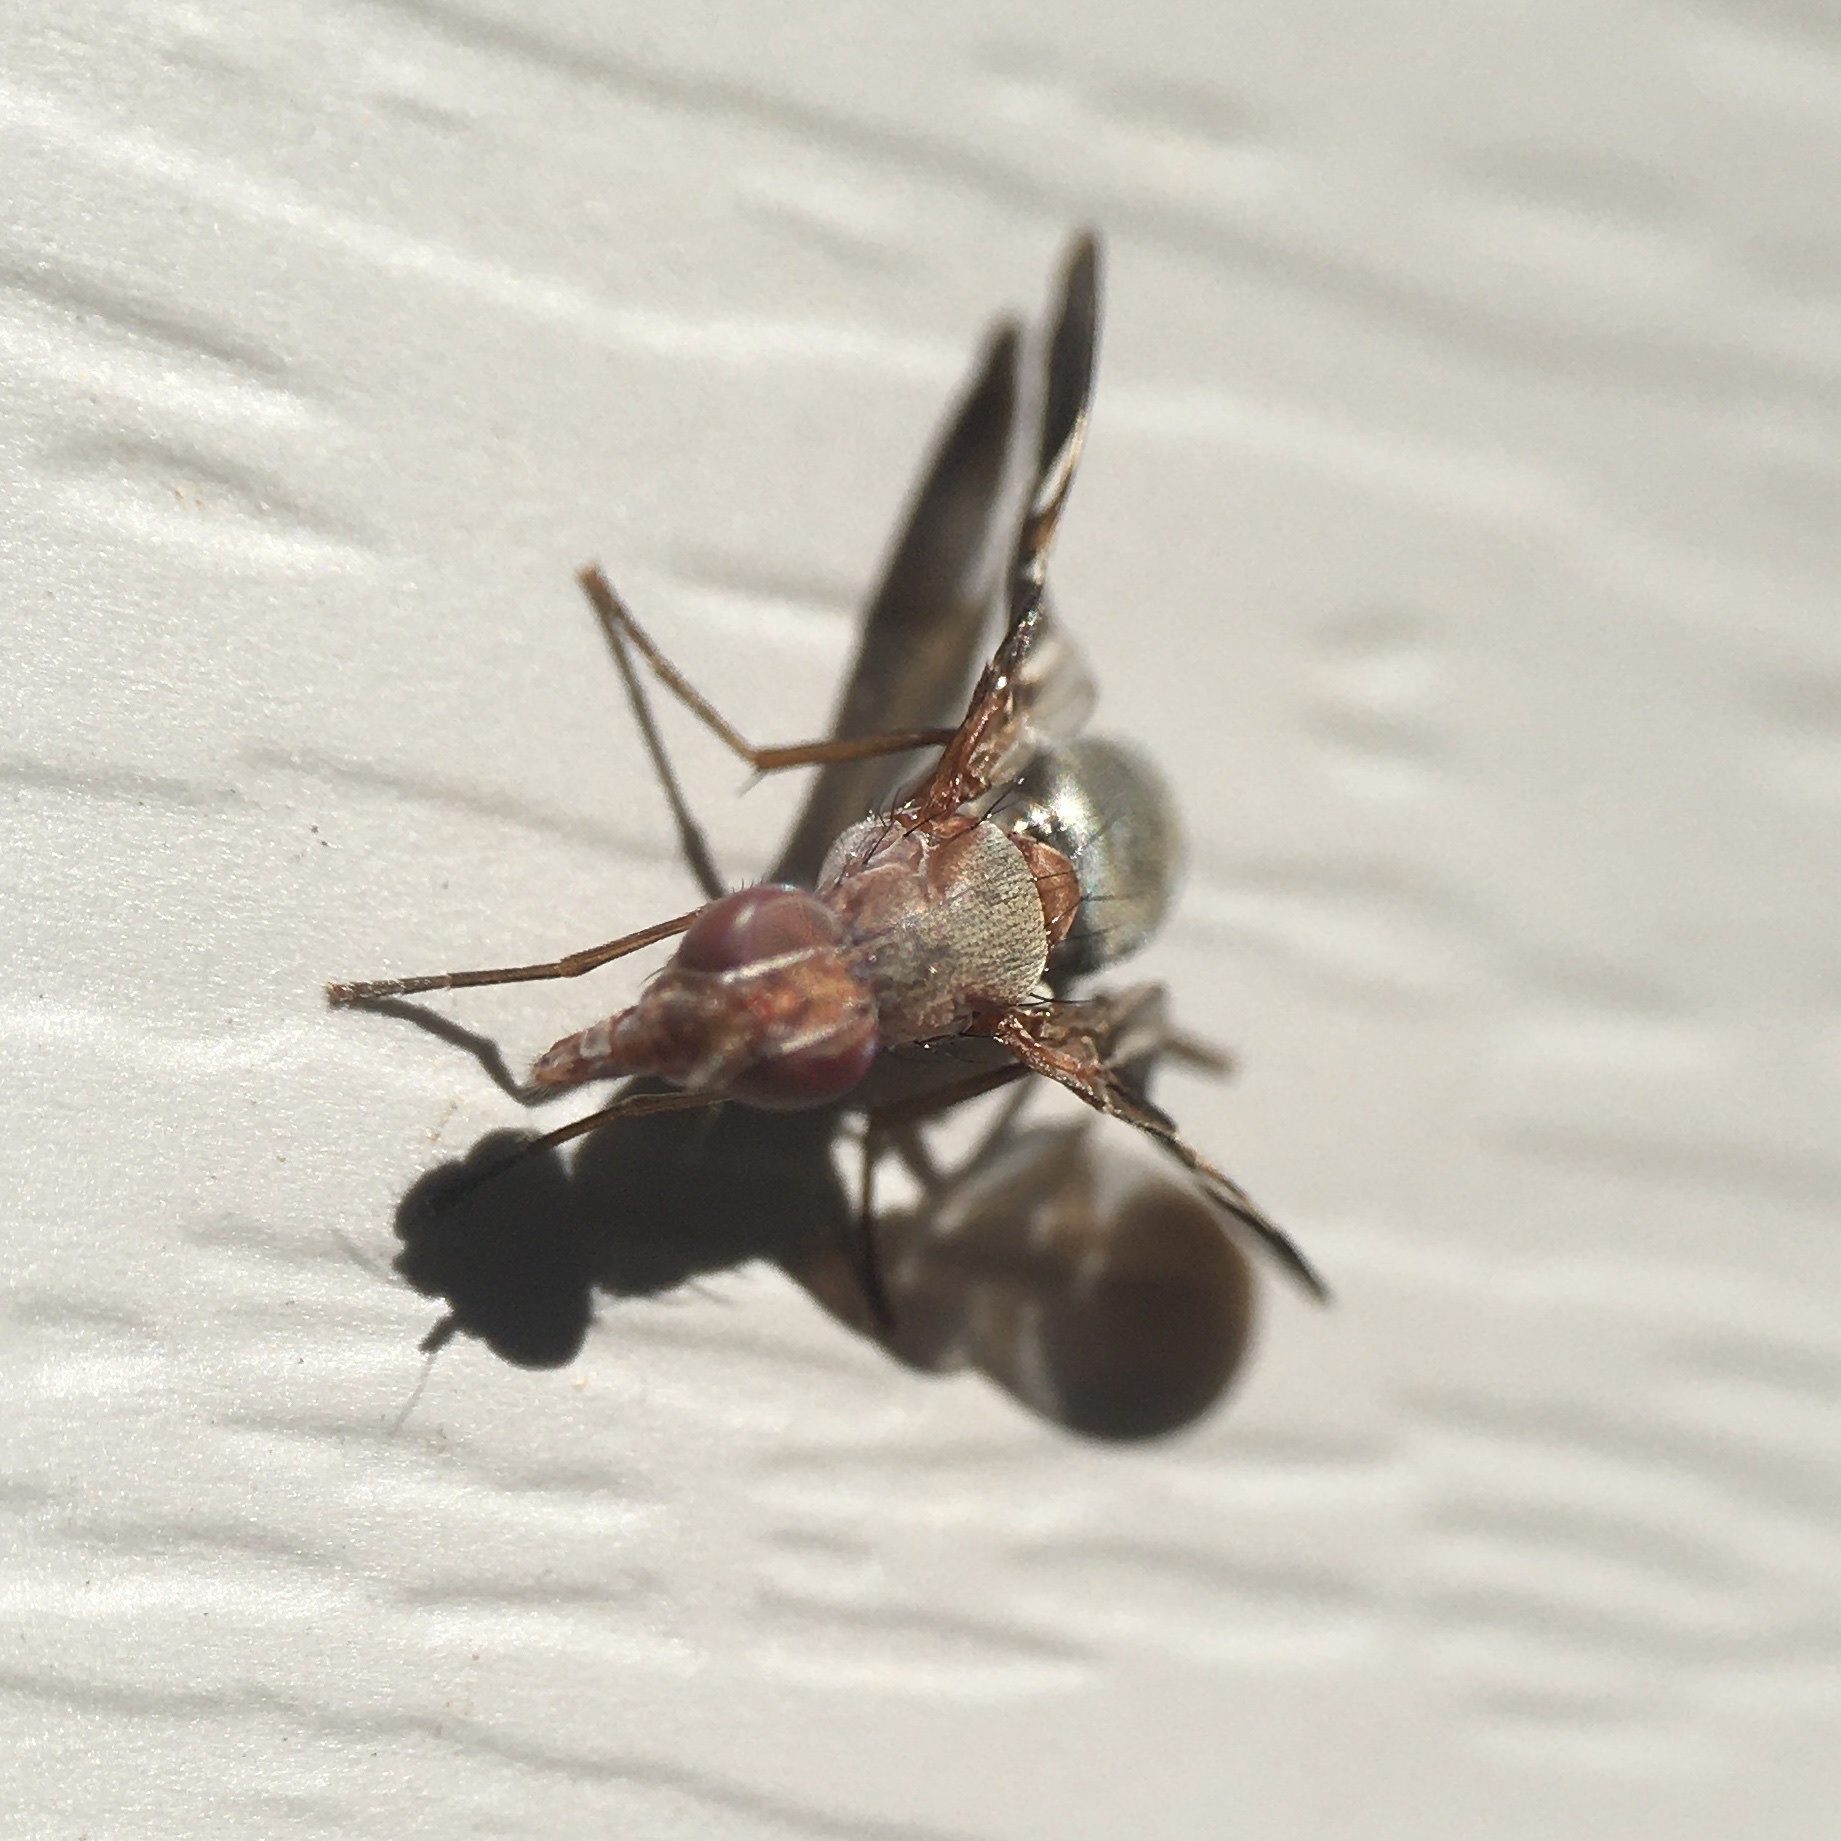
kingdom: Animalia
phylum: Arthropoda
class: Insecta
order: Diptera
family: Ulidiidae
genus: Delphinia
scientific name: Delphinia picta
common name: Common picture-winged fly
